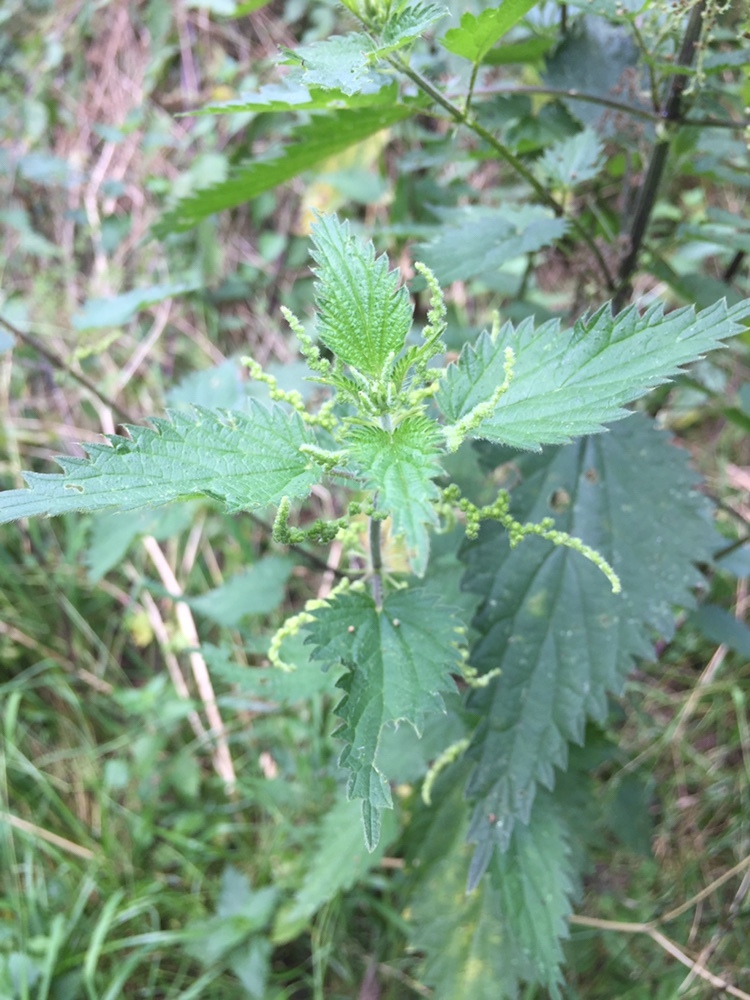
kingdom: Plantae
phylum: Tracheophyta
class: Magnoliopsida
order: Rosales
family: Urticaceae
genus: Urtica
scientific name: Urtica dioica
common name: Common nettle
